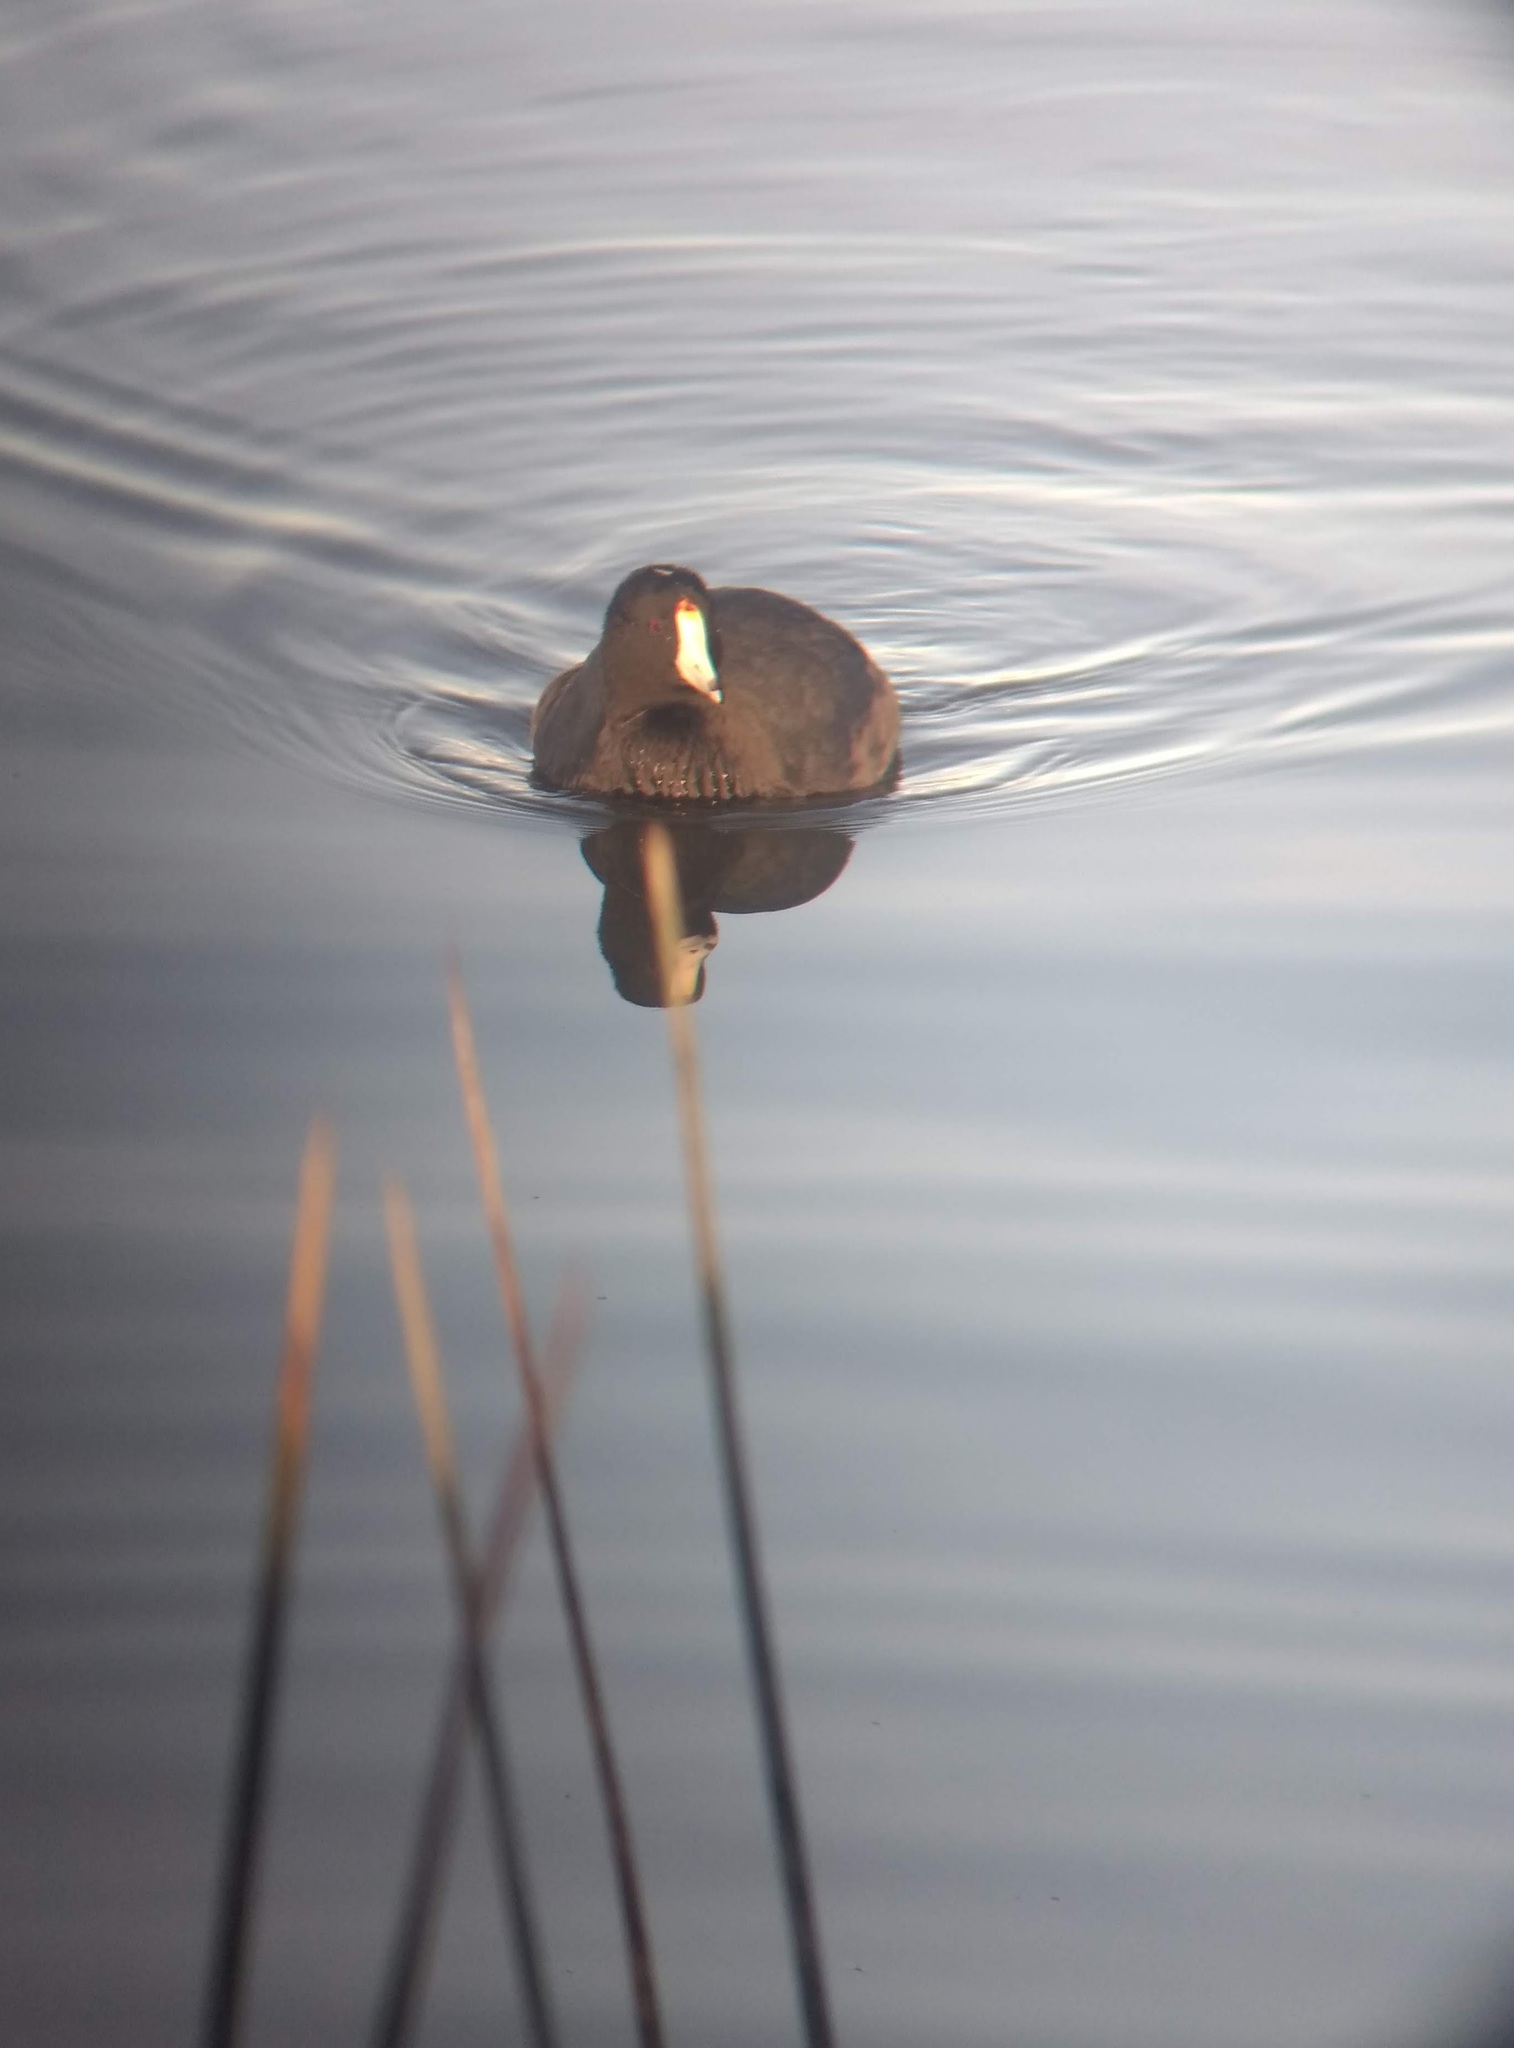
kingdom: Animalia
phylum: Chordata
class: Aves
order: Gruiformes
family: Rallidae
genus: Fulica
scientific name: Fulica americana
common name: American coot
